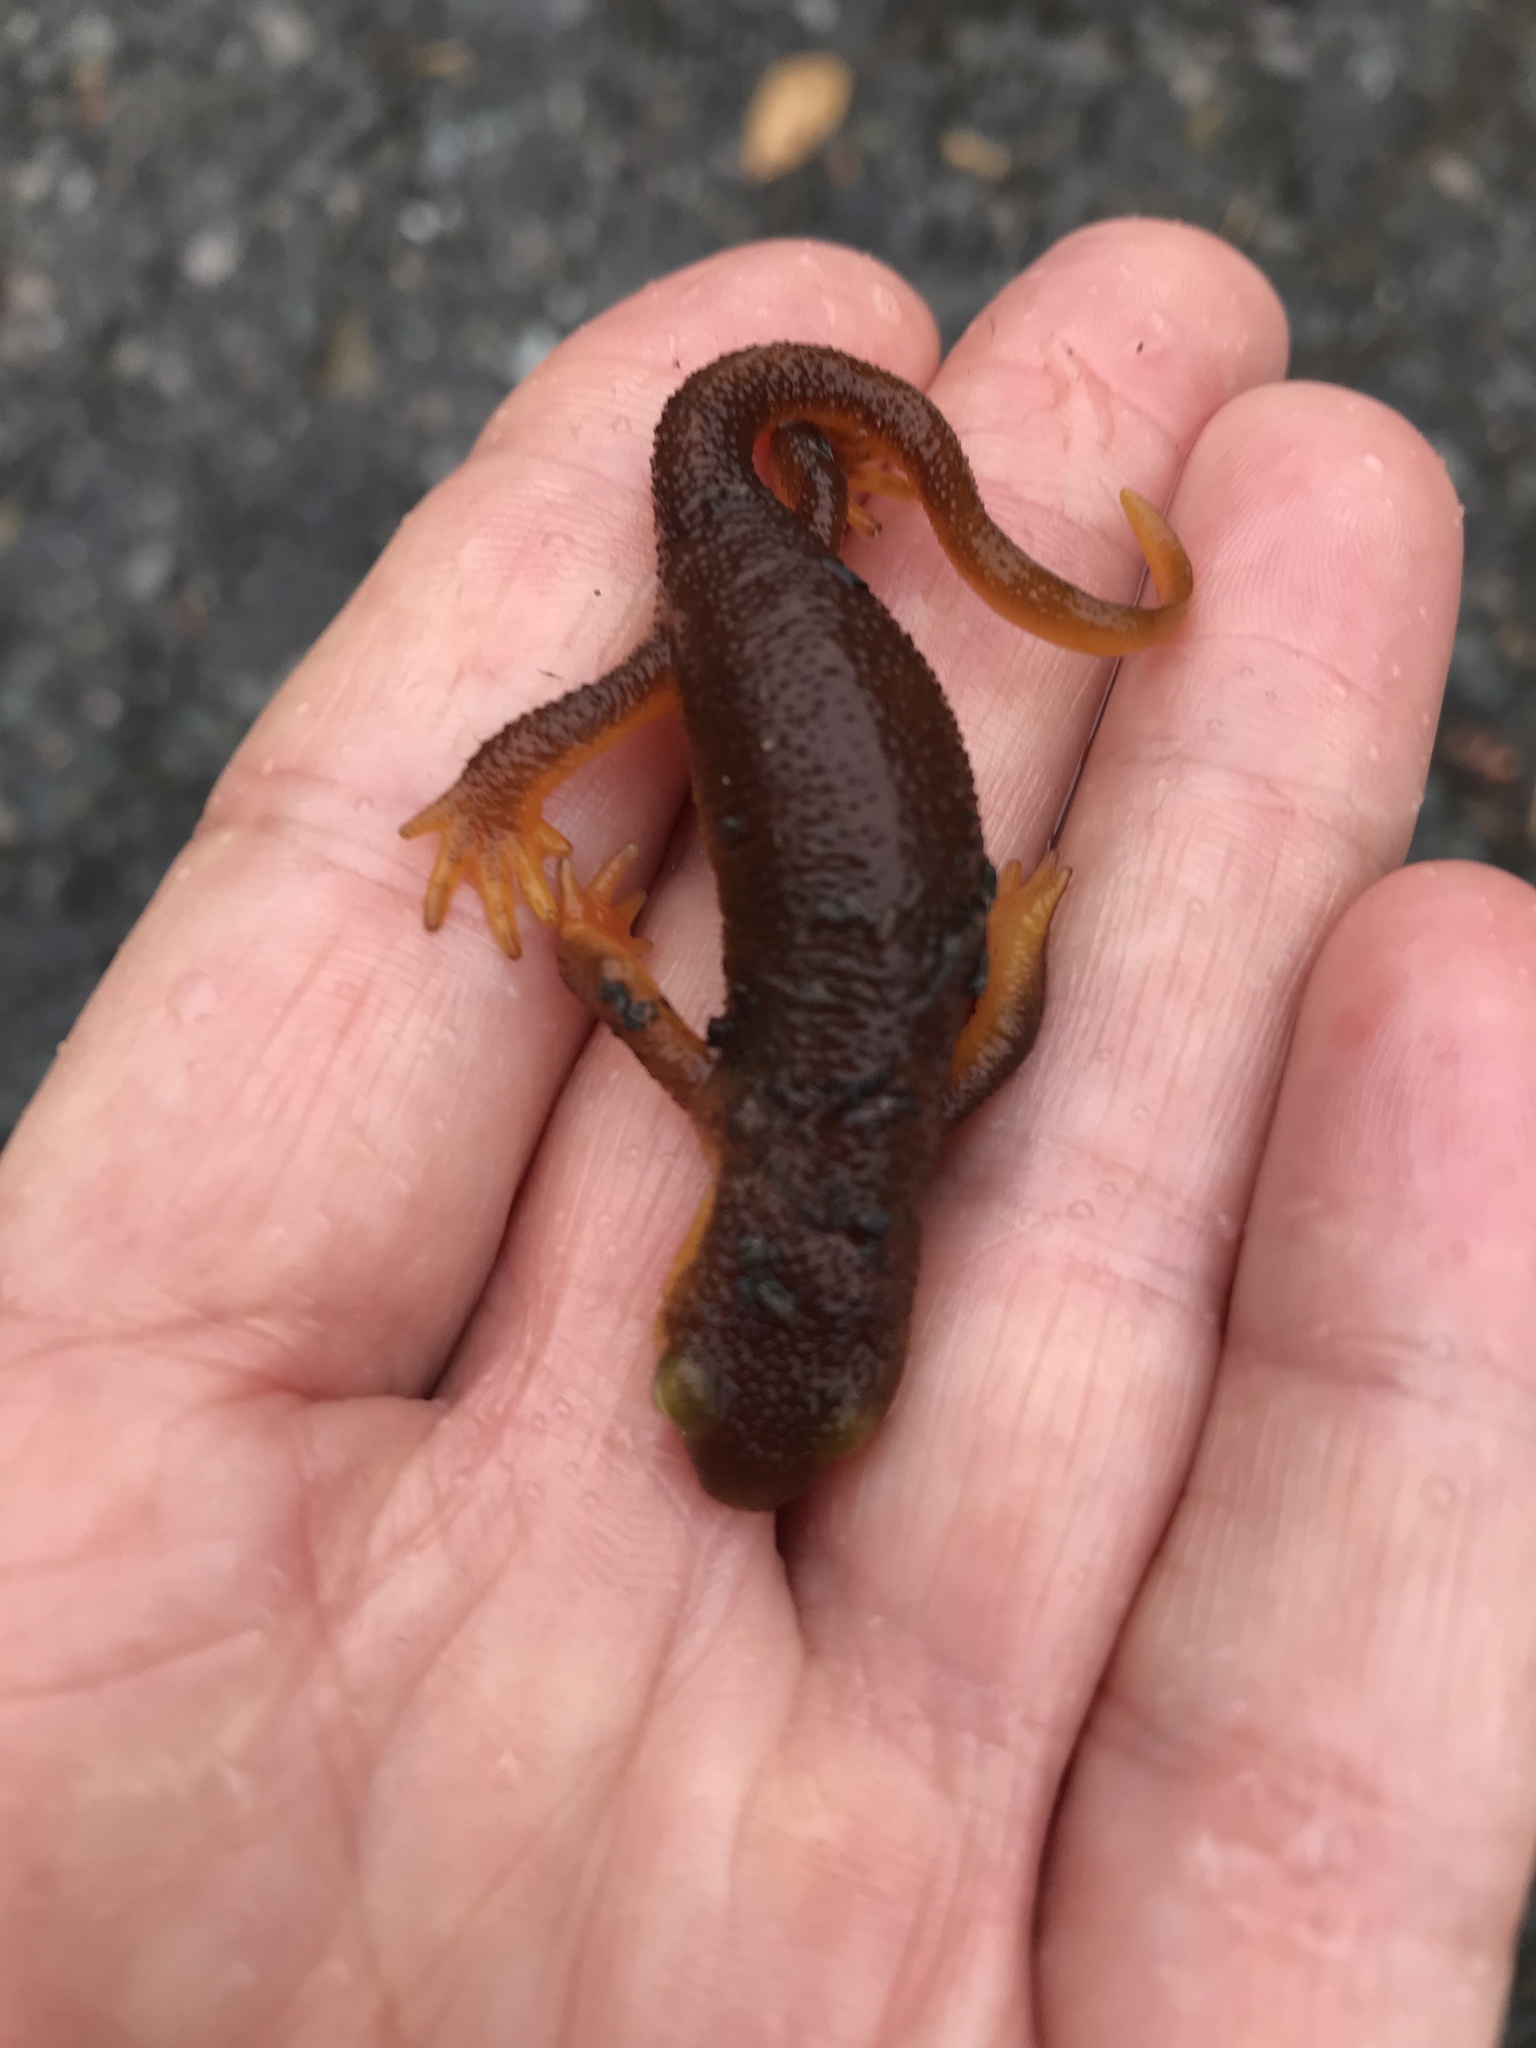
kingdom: Animalia
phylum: Chordata
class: Amphibia
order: Caudata
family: Salamandridae
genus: Taricha
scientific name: Taricha torosa
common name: California newt
